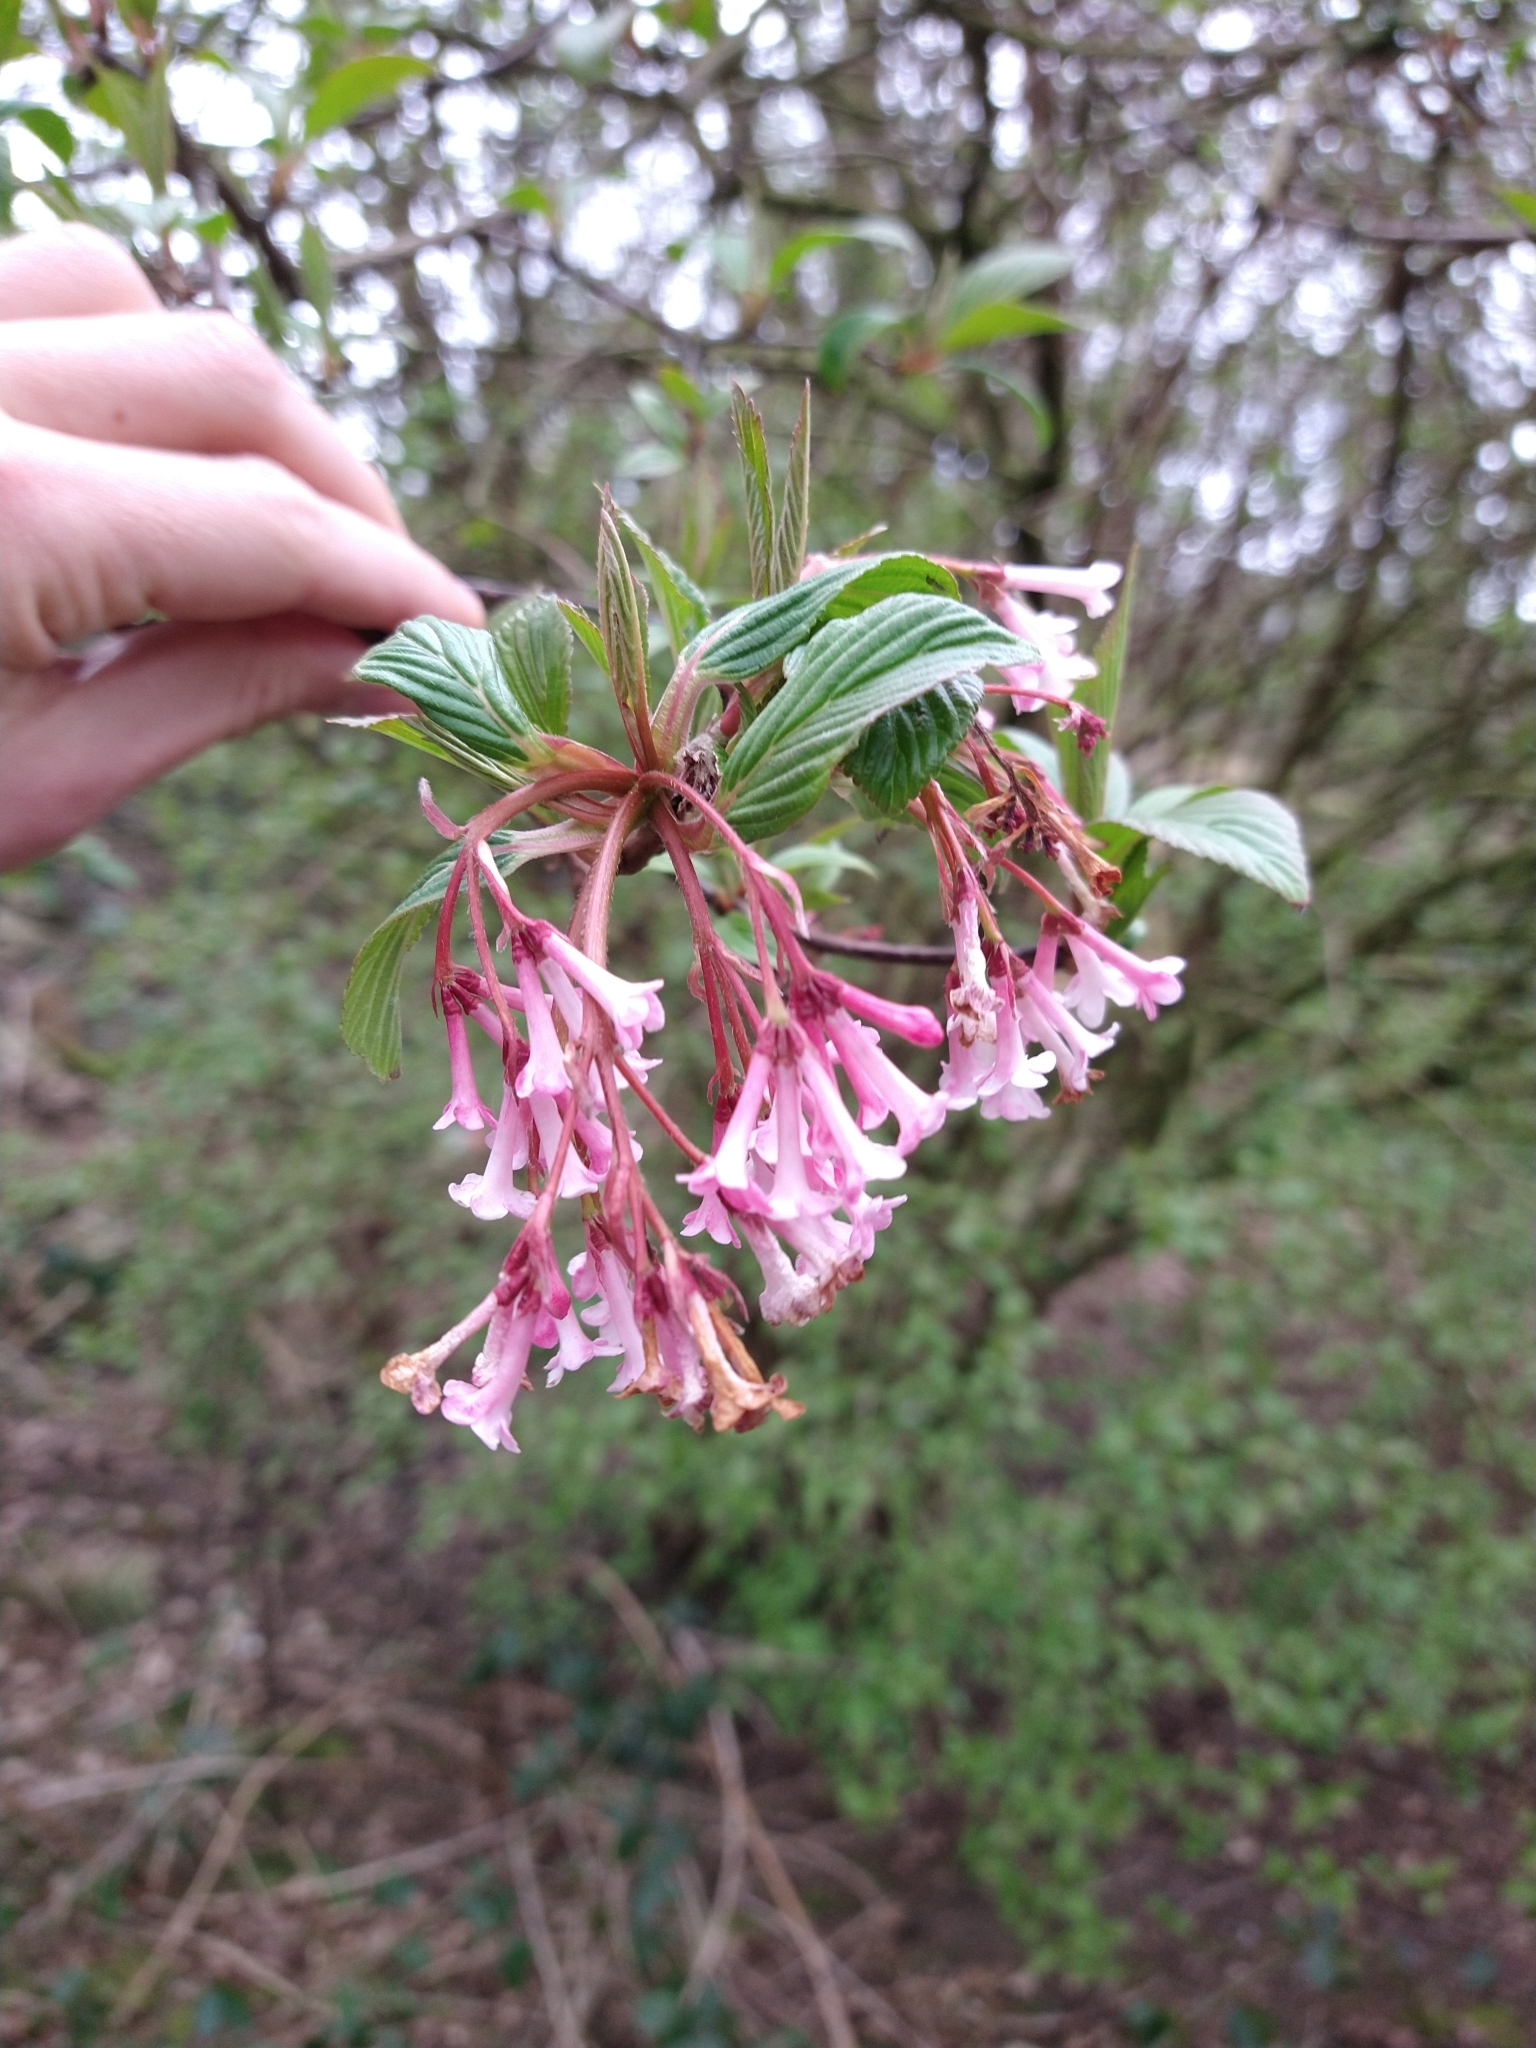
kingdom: Plantae
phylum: Tracheophyta
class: Magnoliopsida
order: Dipsacales
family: Viburnaceae
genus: Viburnum
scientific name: Viburnum bodnantense
